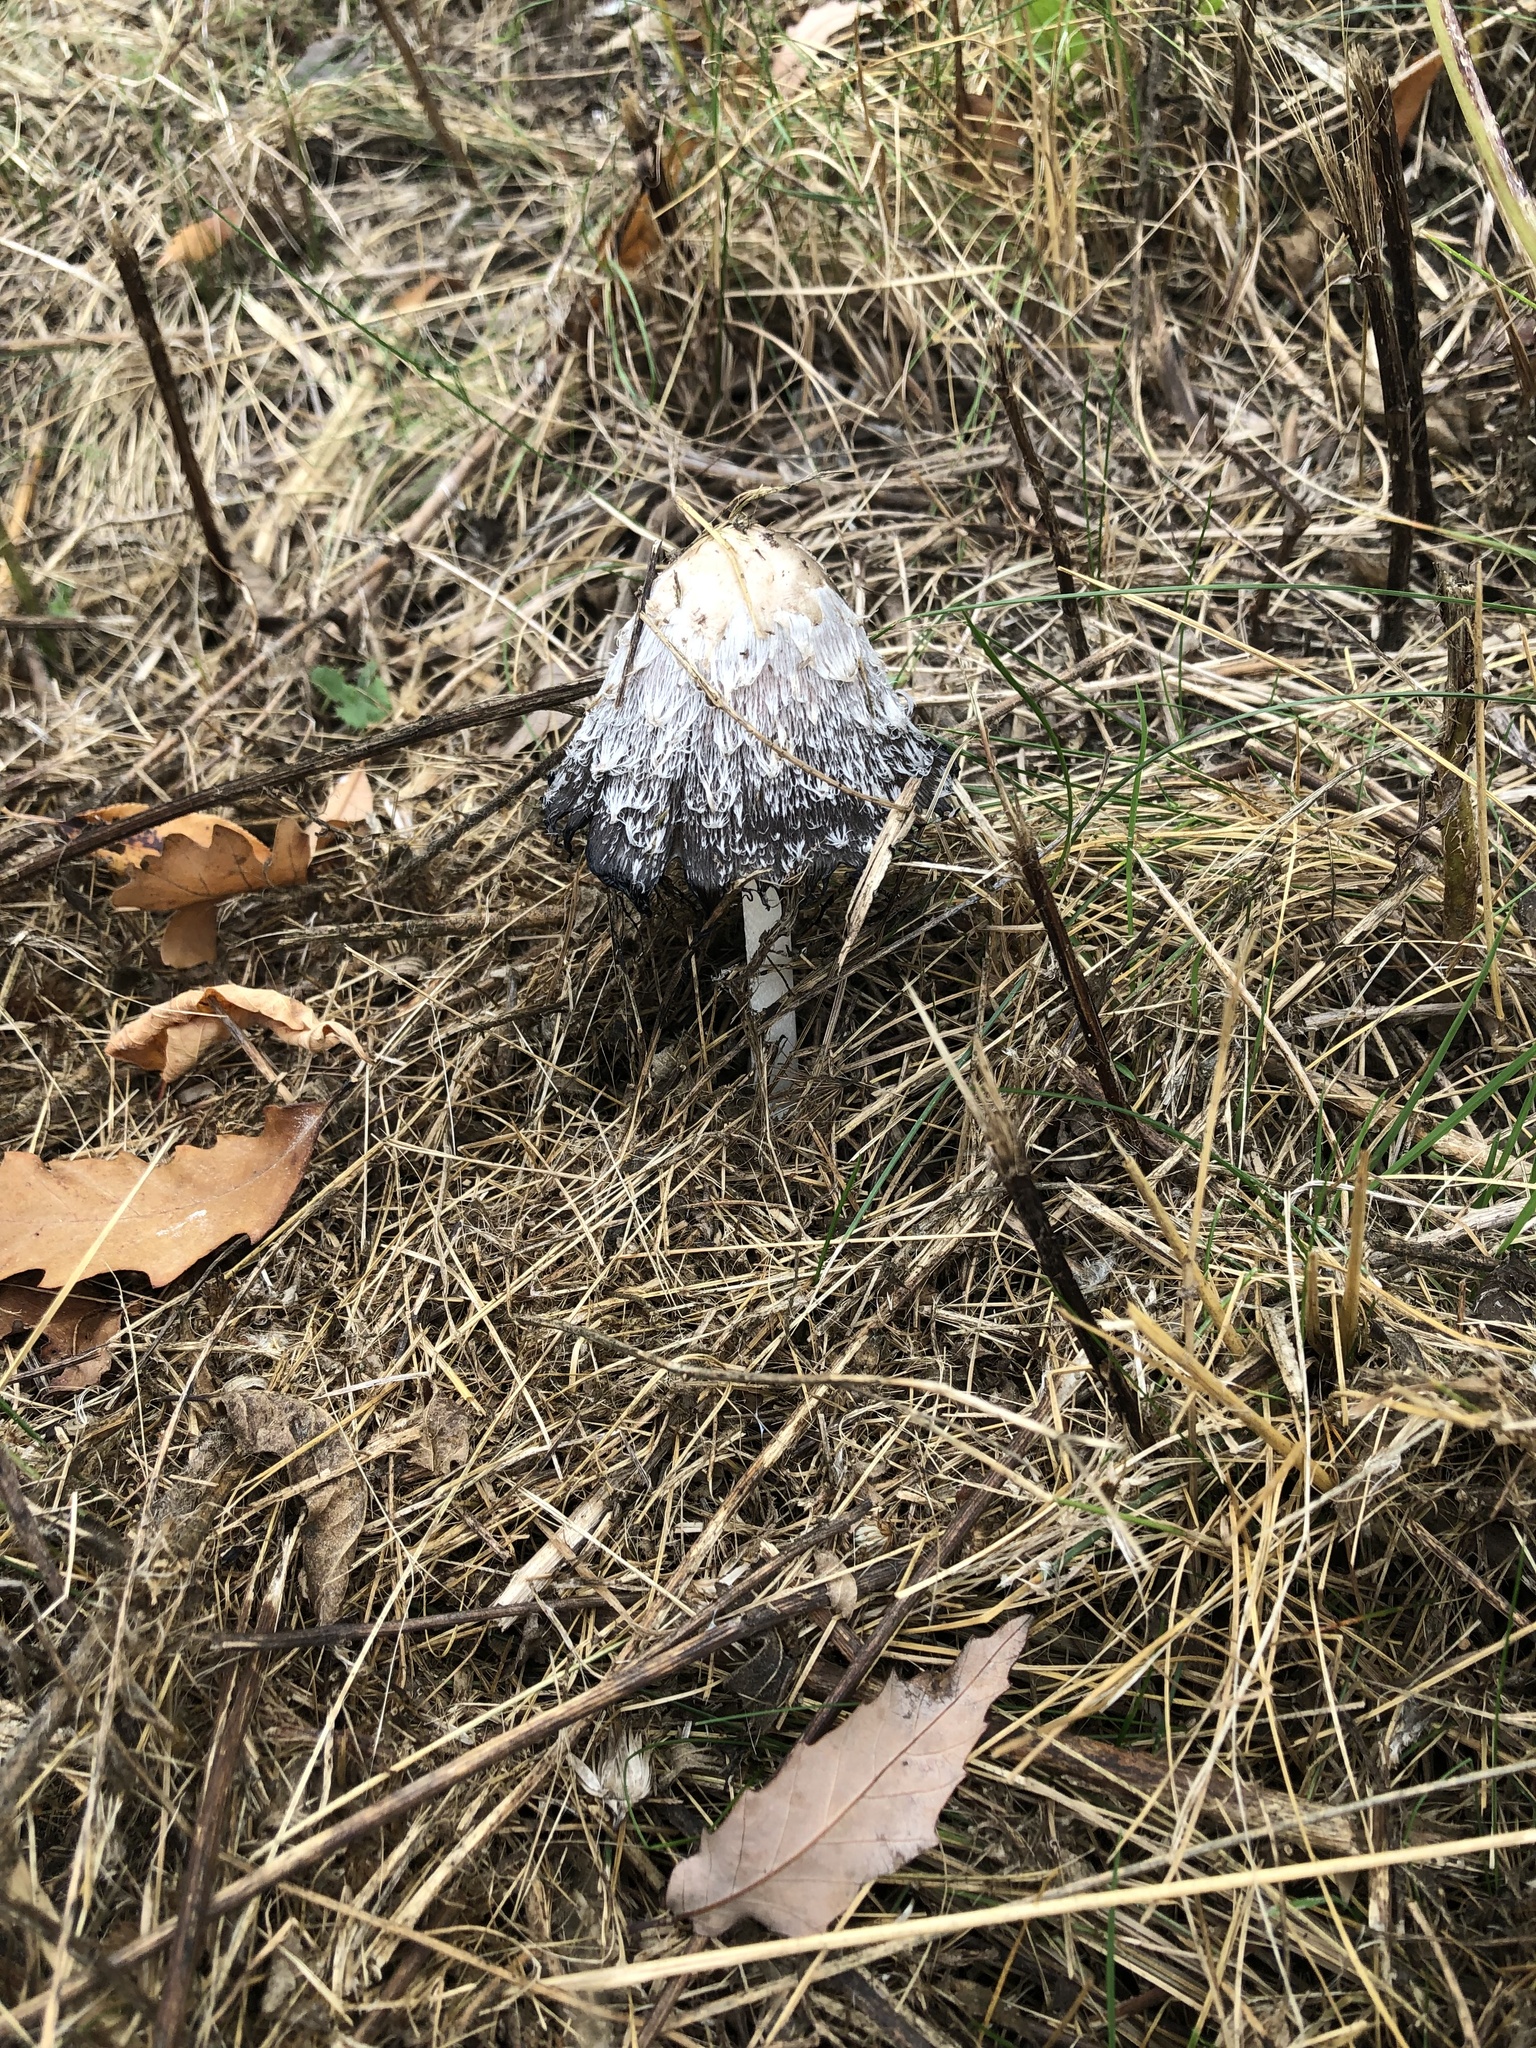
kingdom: Fungi
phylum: Basidiomycota
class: Agaricomycetes
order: Agaricales
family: Agaricaceae
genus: Coprinus
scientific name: Coprinus comatus
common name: Lawyer's wig
